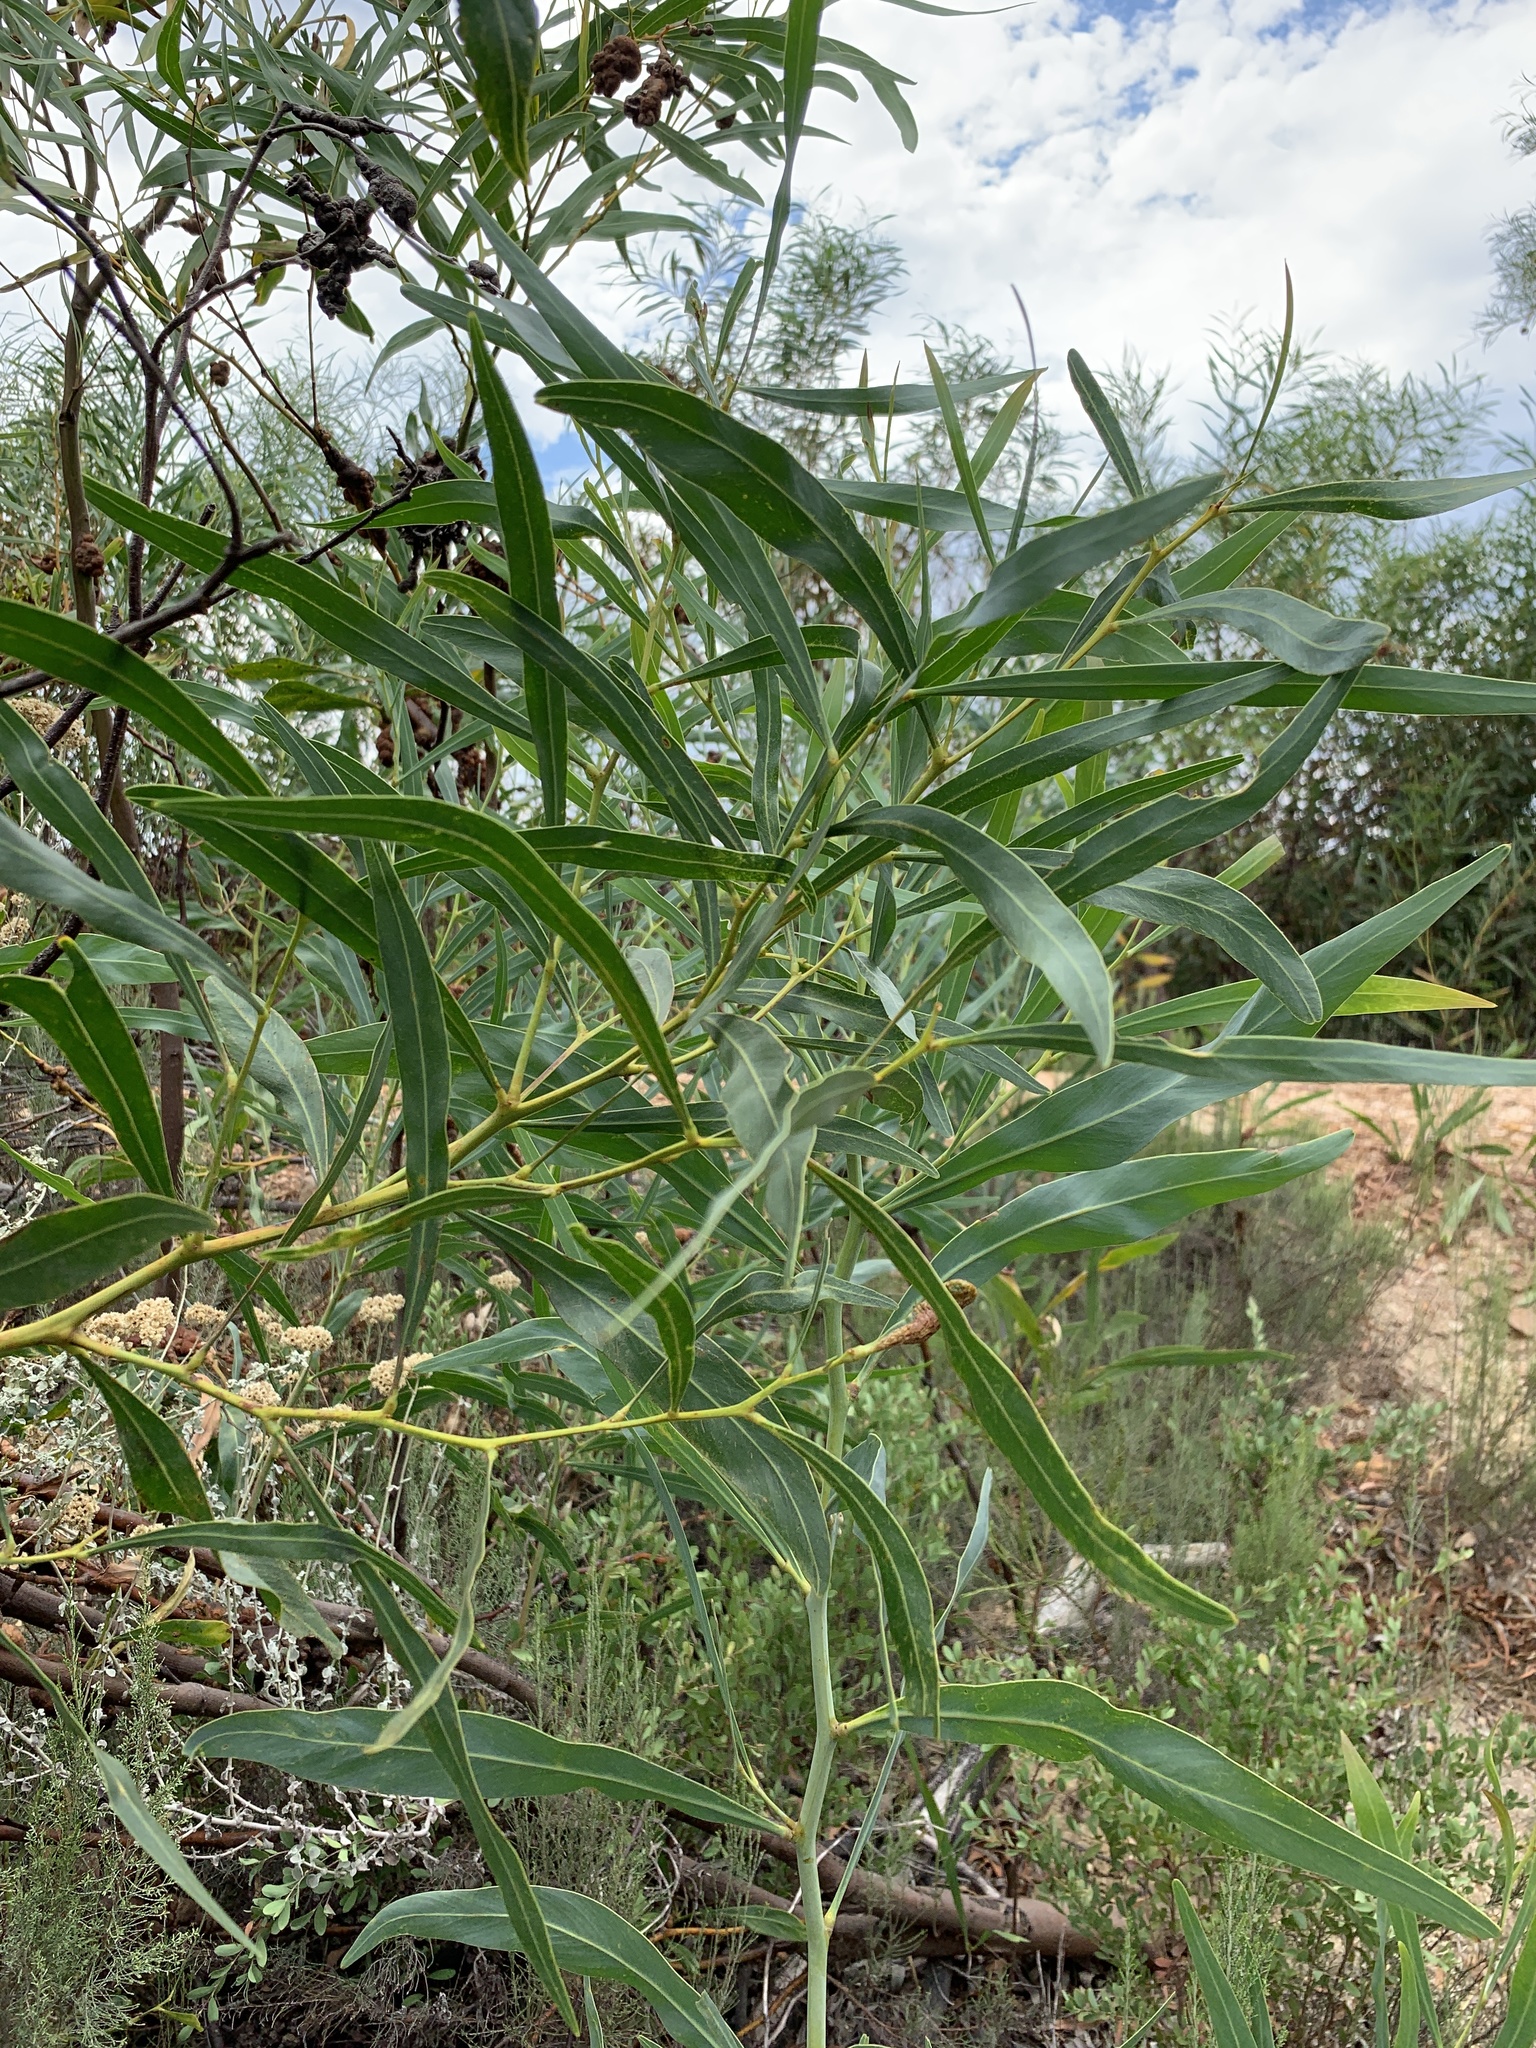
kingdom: Plantae
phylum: Tracheophyta
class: Magnoliopsida
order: Fabales
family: Fabaceae
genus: Acacia
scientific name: Acacia saligna
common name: Orange wattle
